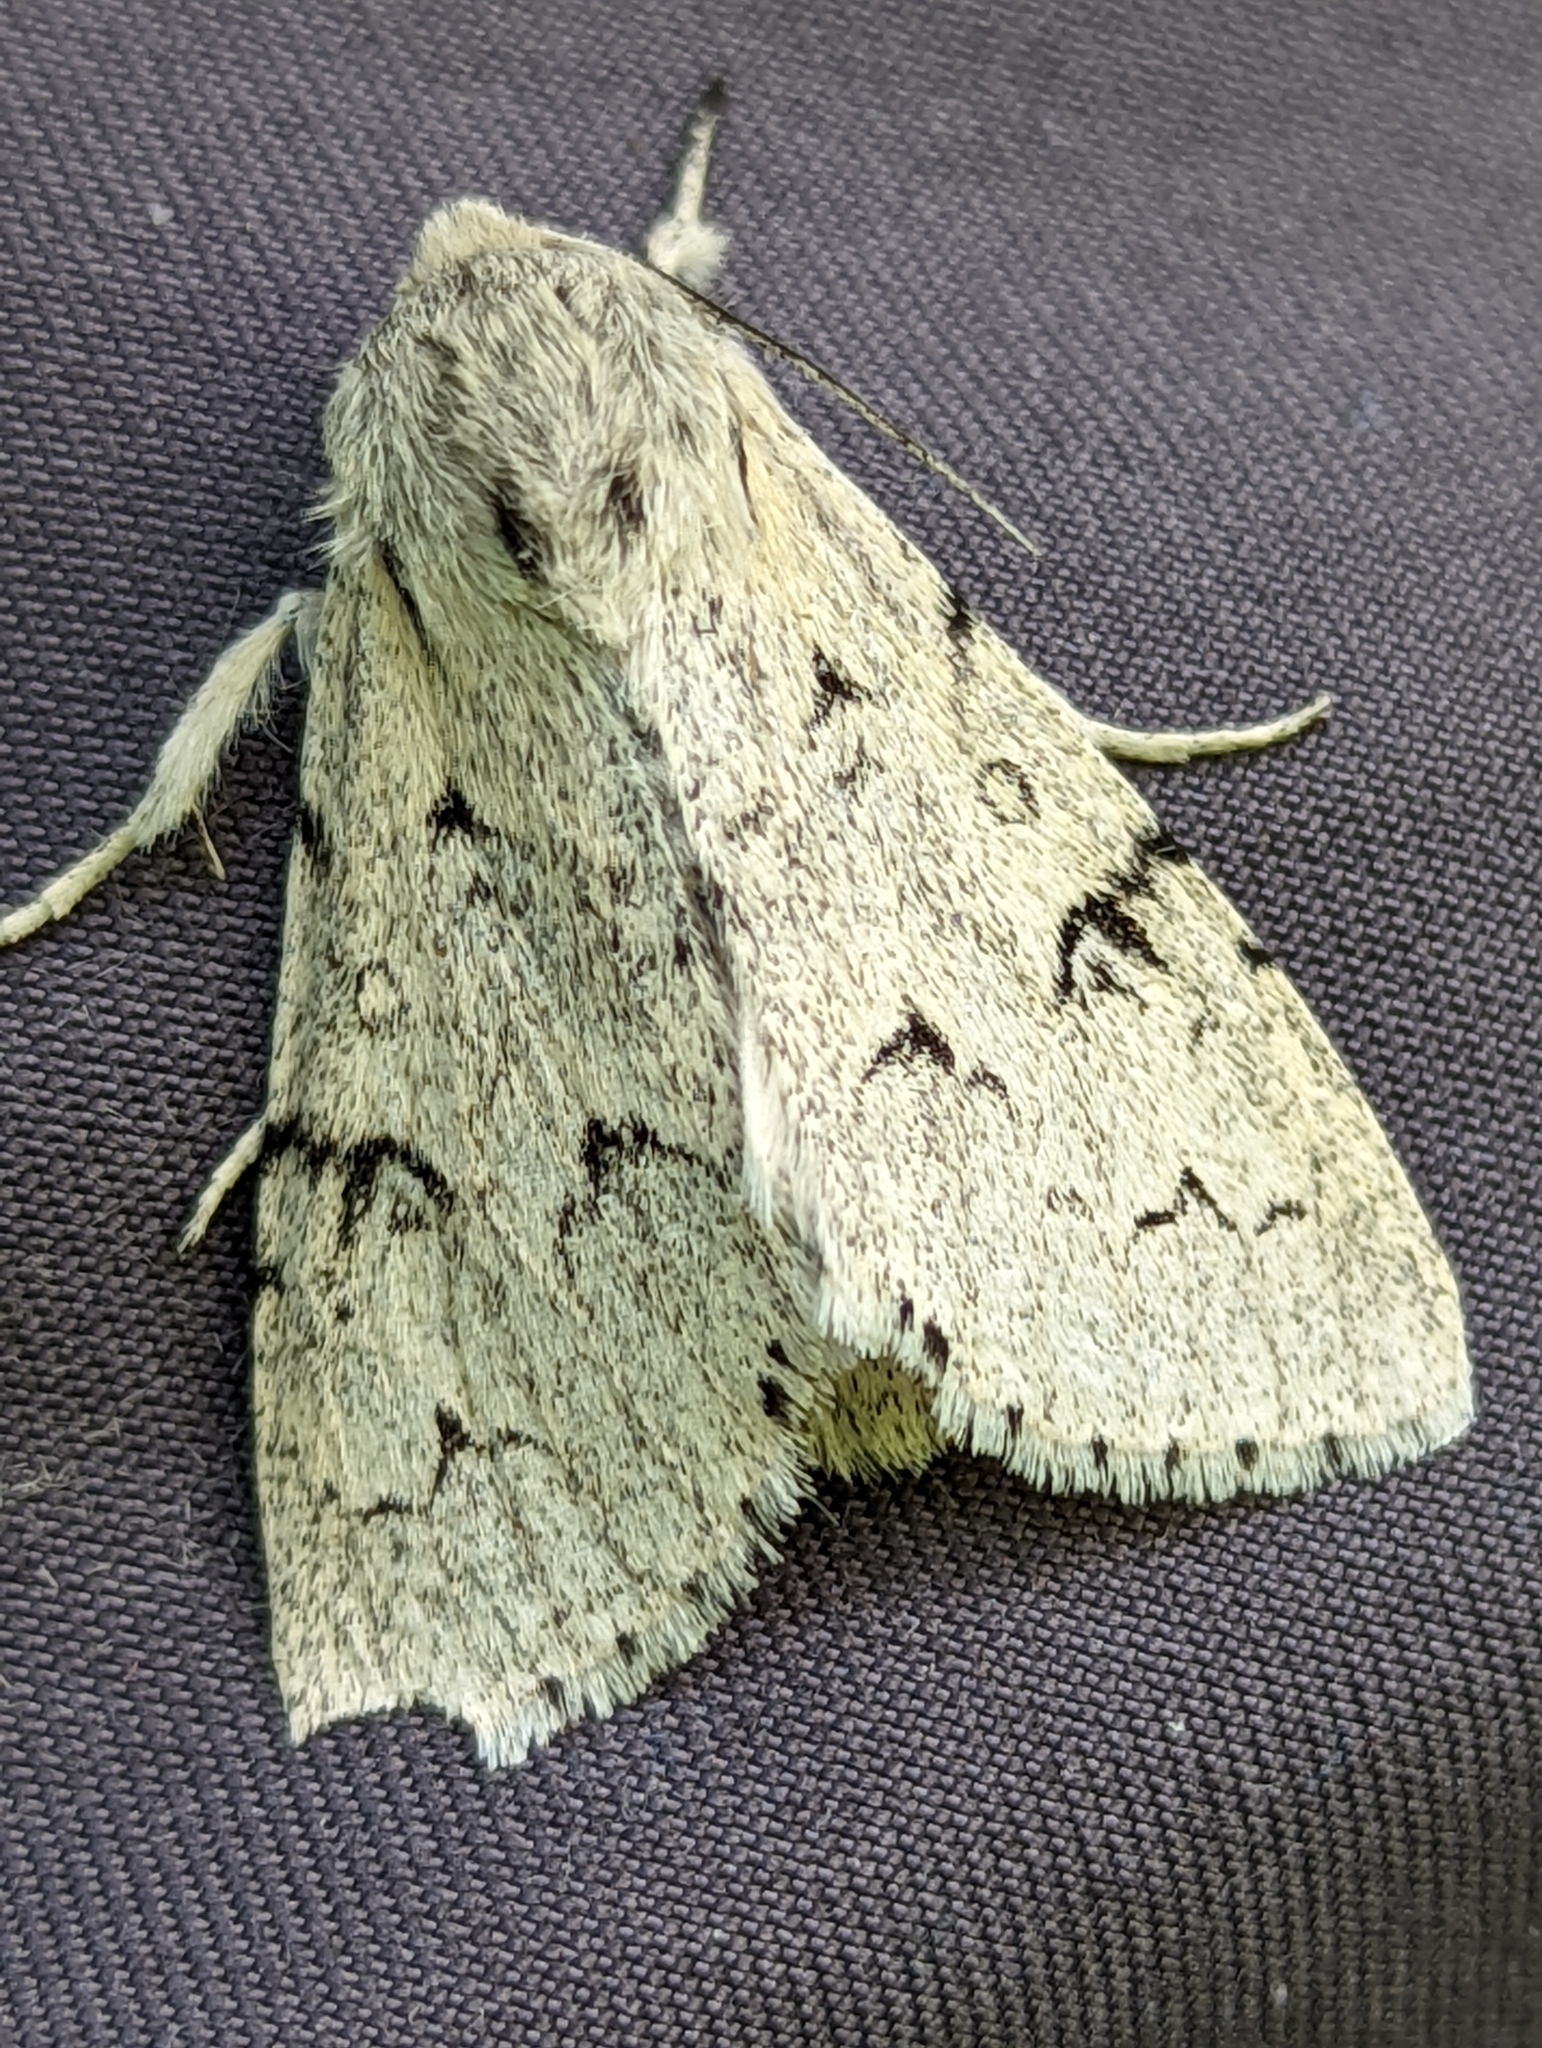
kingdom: Animalia
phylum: Arthropoda
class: Insecta
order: Lepidoptera
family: Noctuidae
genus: Acronicta
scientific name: Acronicta leporina
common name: Miller
